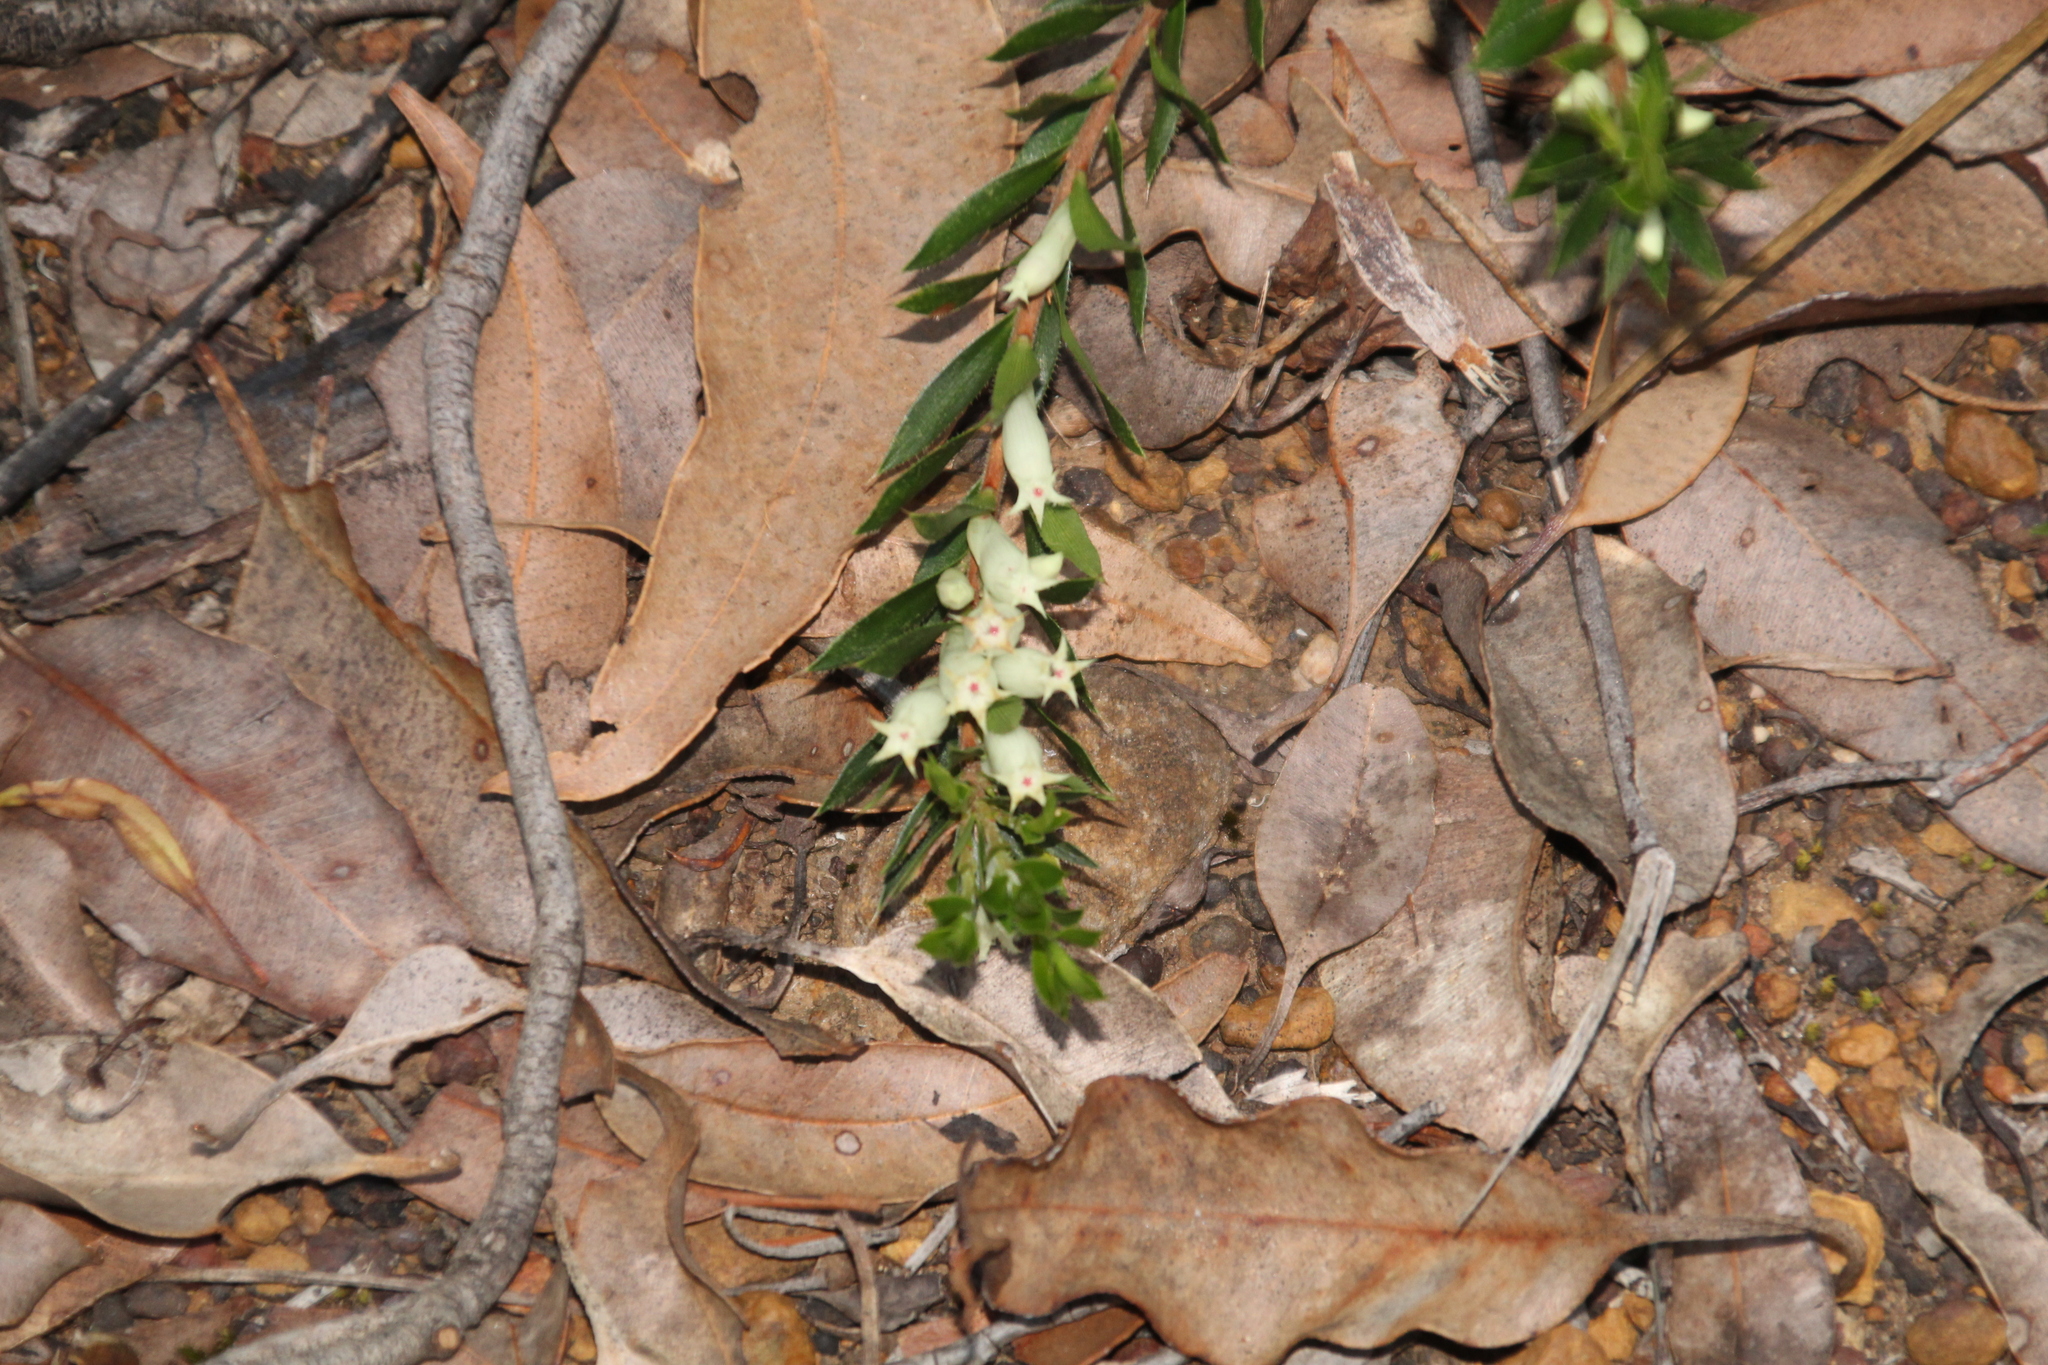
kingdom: Plantae
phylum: Tracheophyta
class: Magnoliopsida
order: Ericales
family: Ericaceae
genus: Styphelia
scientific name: Styphelia pallida
